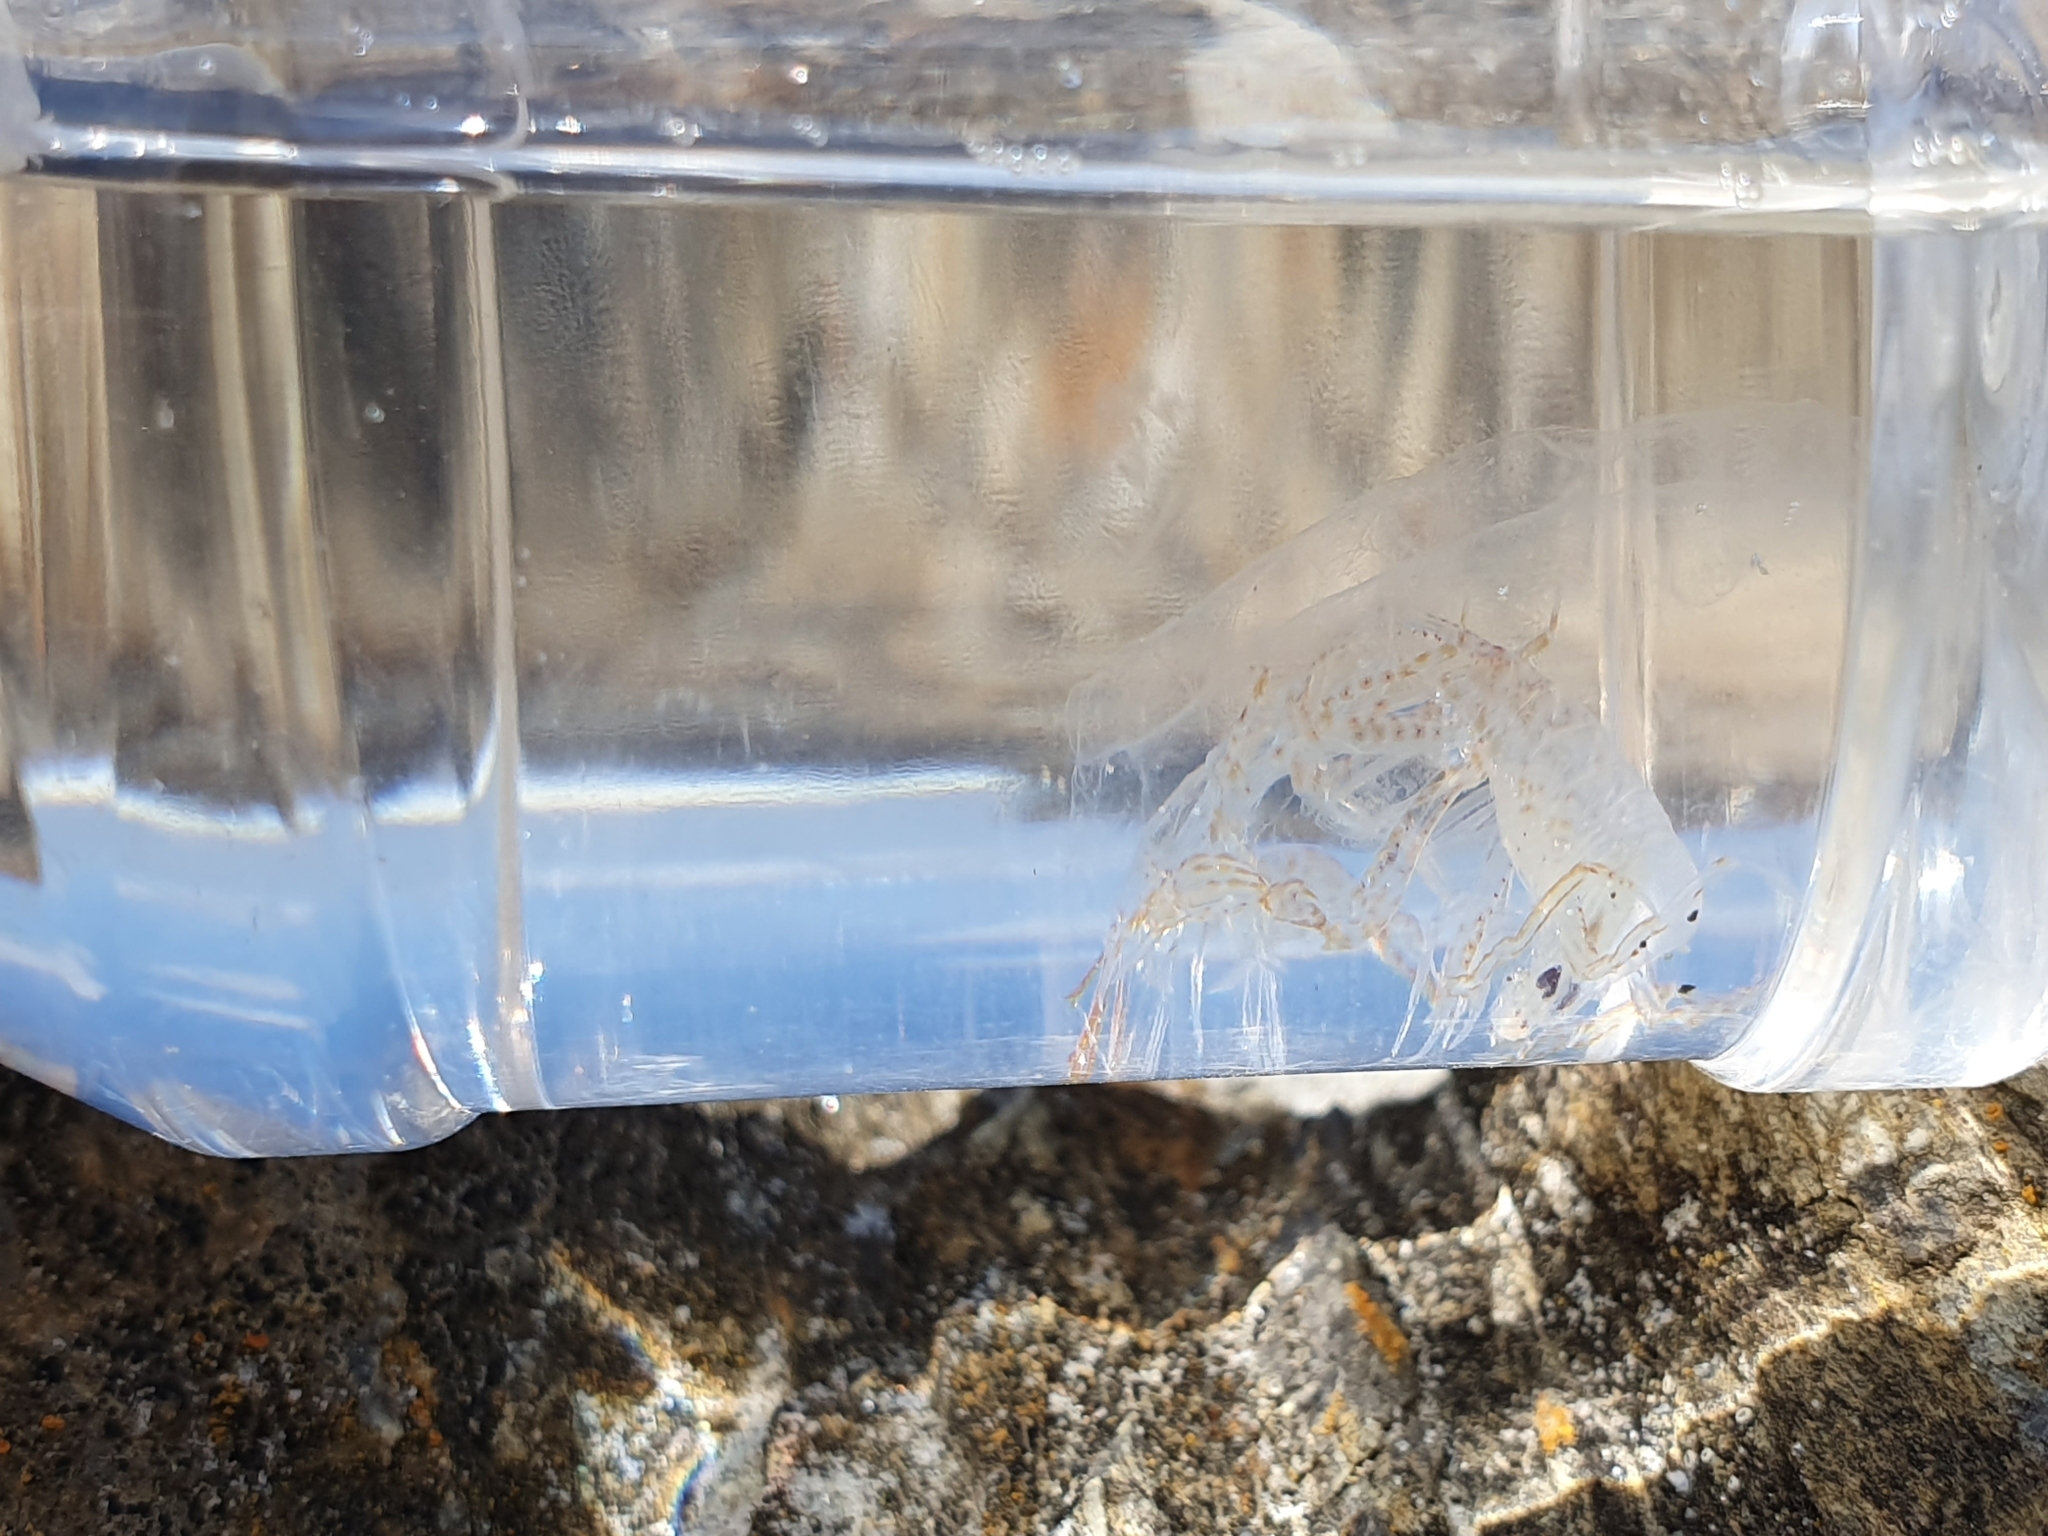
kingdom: Animalia
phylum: Arthropoda
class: Malacostraca
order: Amphipoda
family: Phronimidae
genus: Phronima
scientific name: Phronima sedentaria
